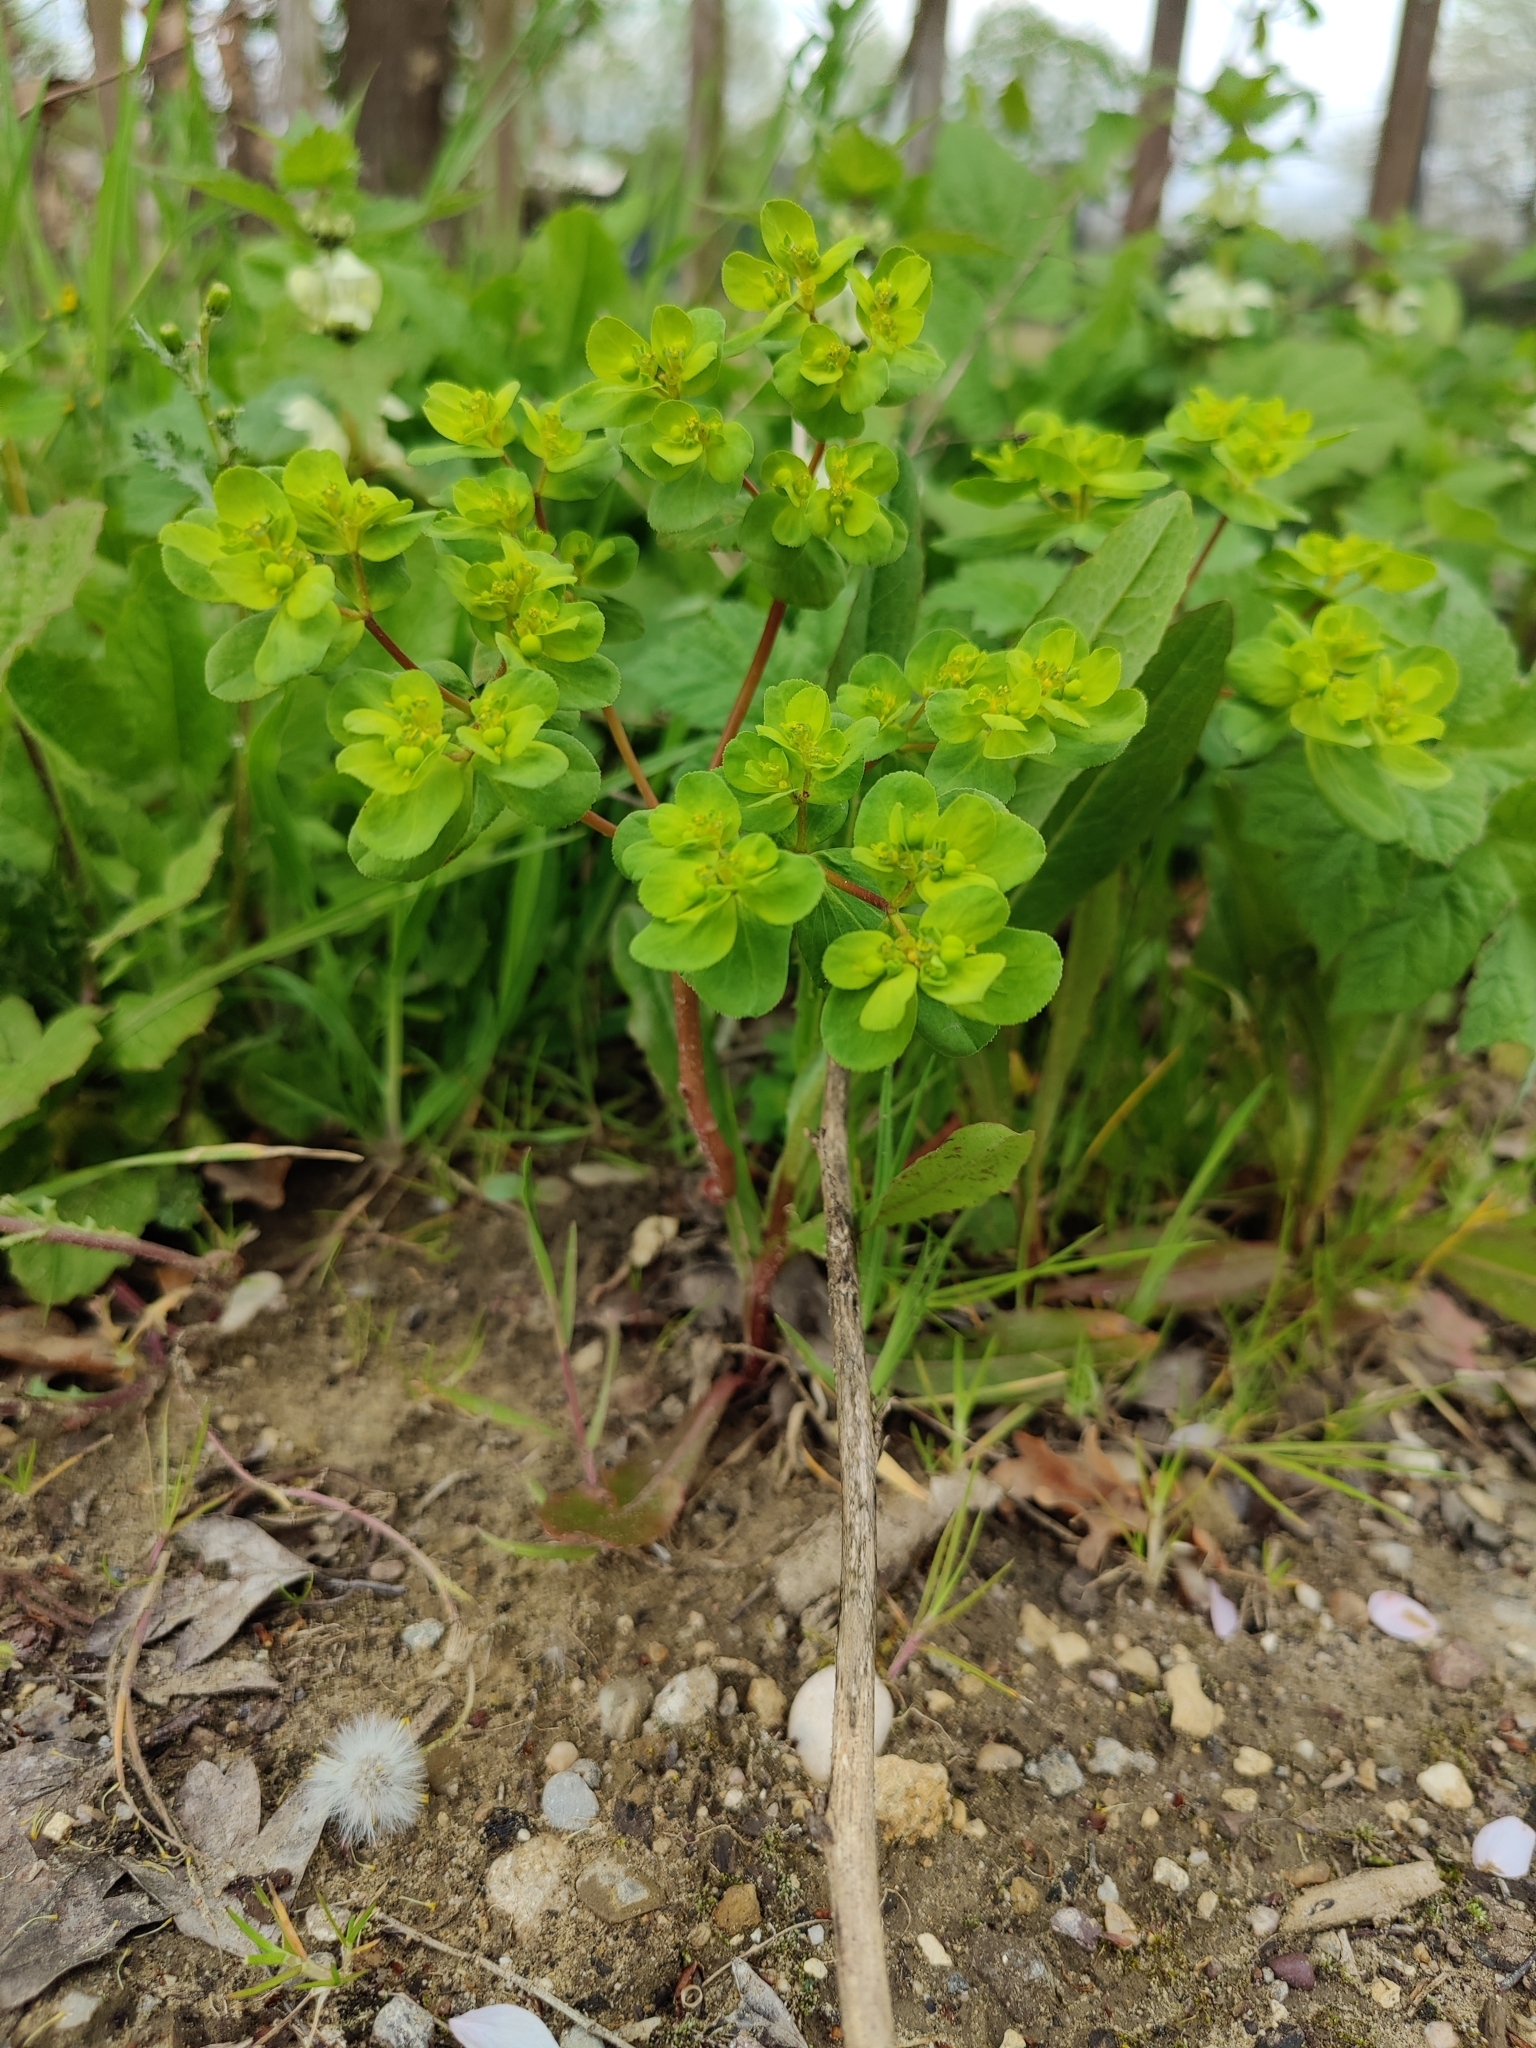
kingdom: Plantae
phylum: Tracheophyta
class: Magnoliopsida
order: Malpighiales
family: Euphorbiaceae
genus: Euphorbia
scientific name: Euphorbia helioscopia
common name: Sun spurge
